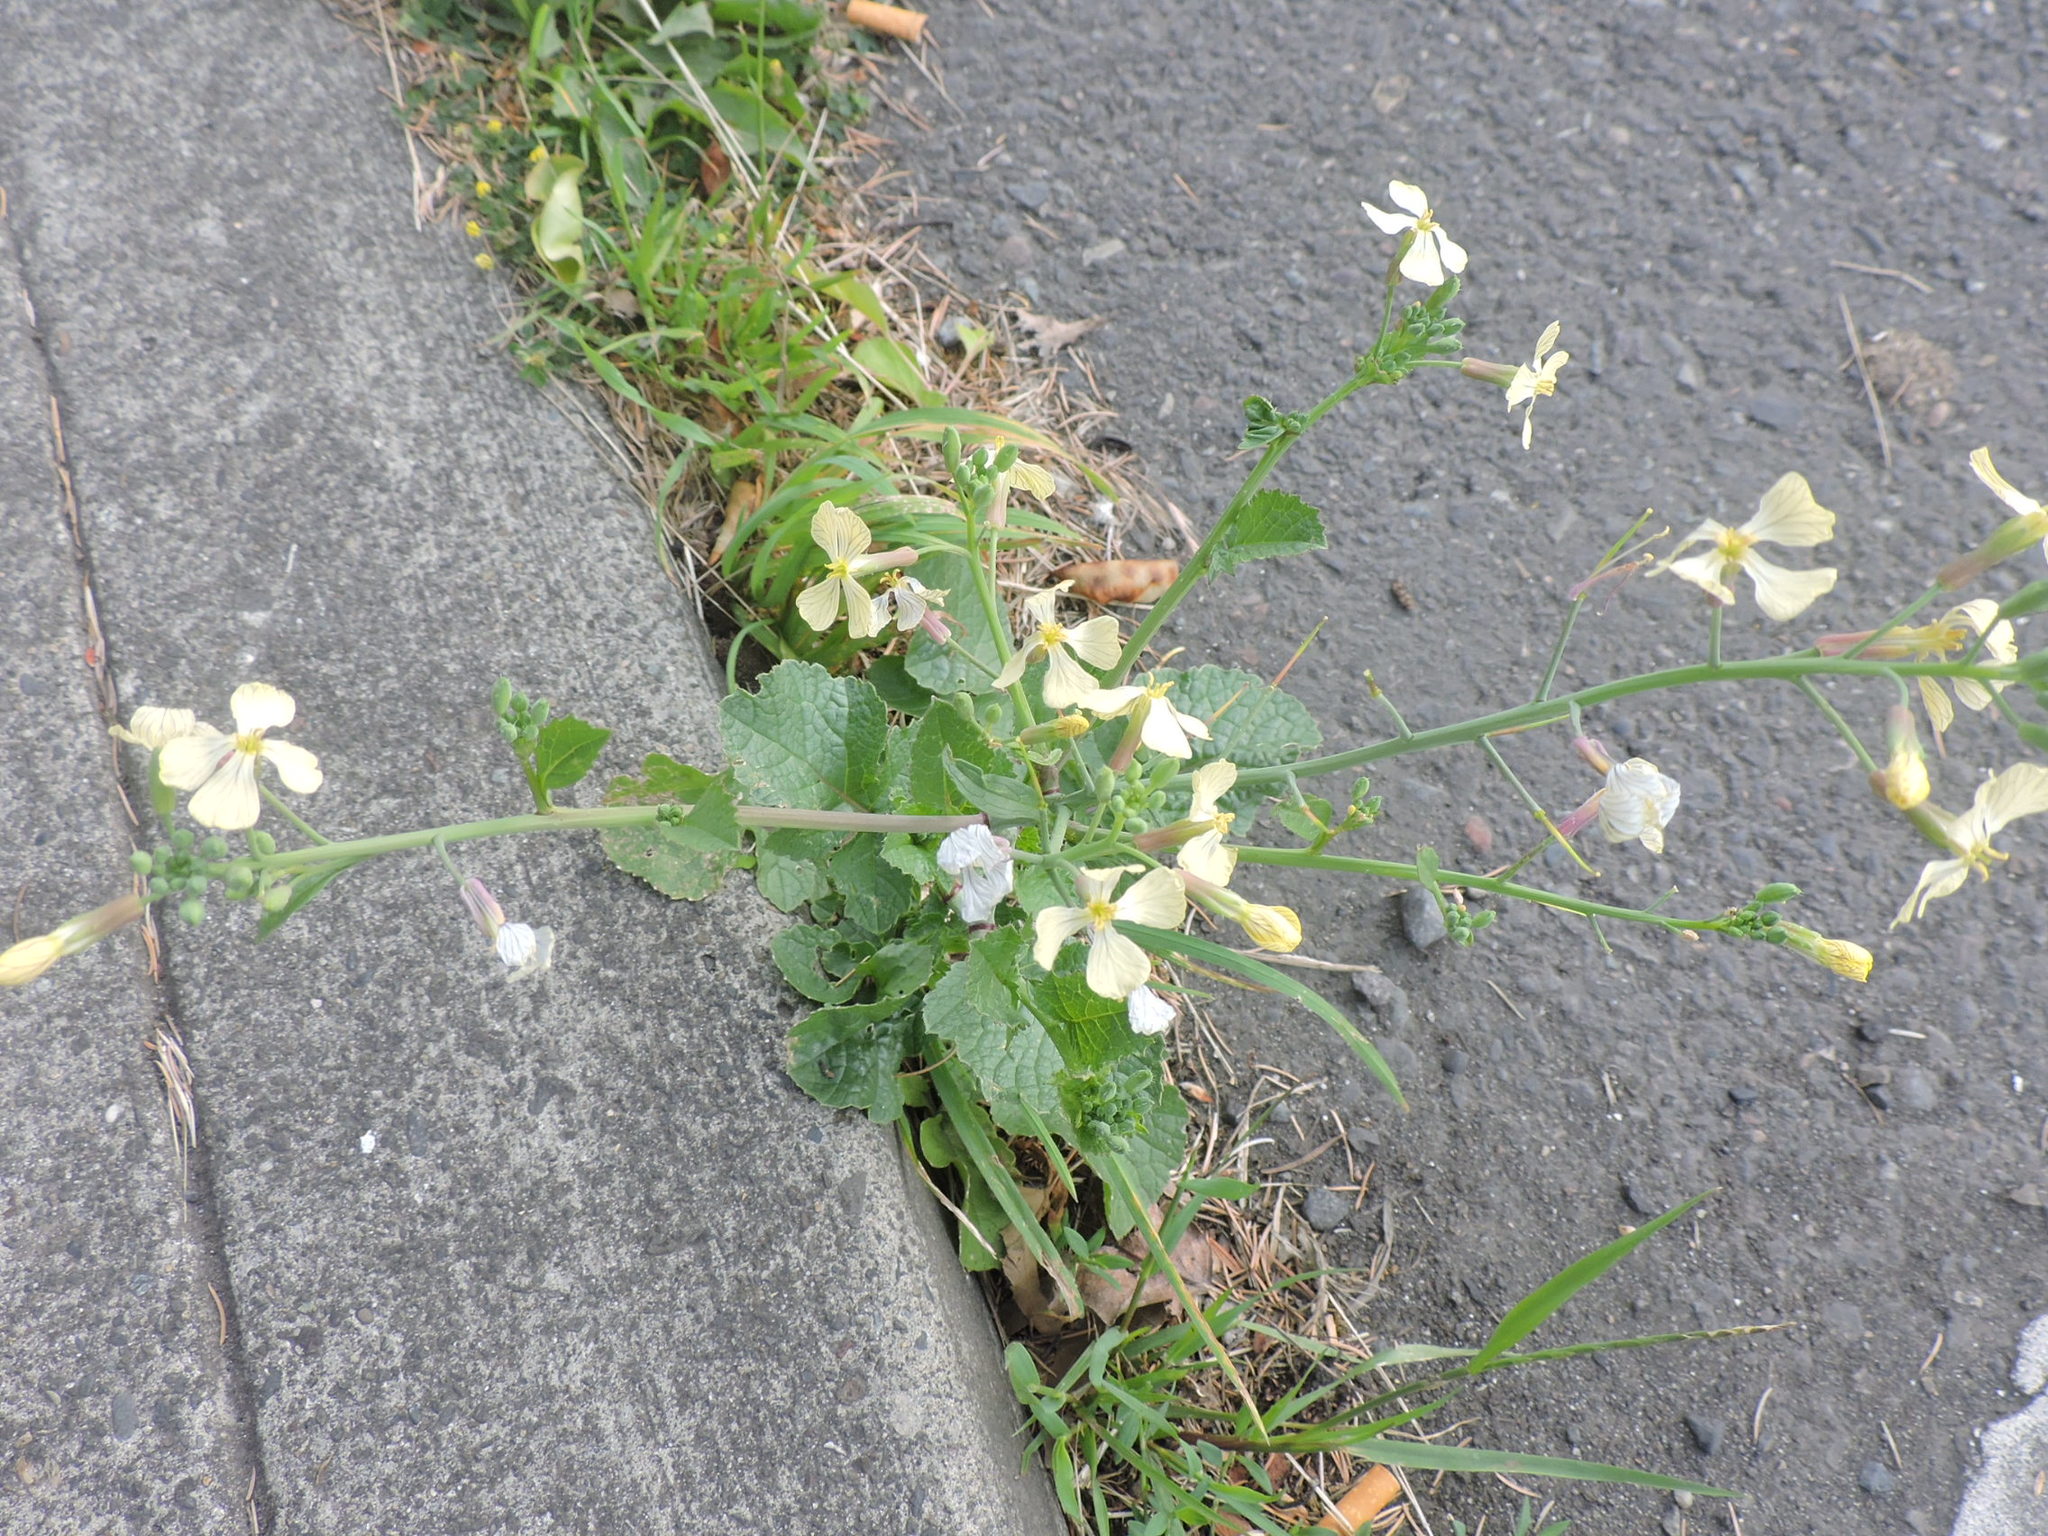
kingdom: Plantae
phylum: Tracheophyta
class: Magnoliopsida
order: Brassicales
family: Brassicaceae
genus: Raphanus
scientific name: Raphanus raphanistrum
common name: Wild radish
